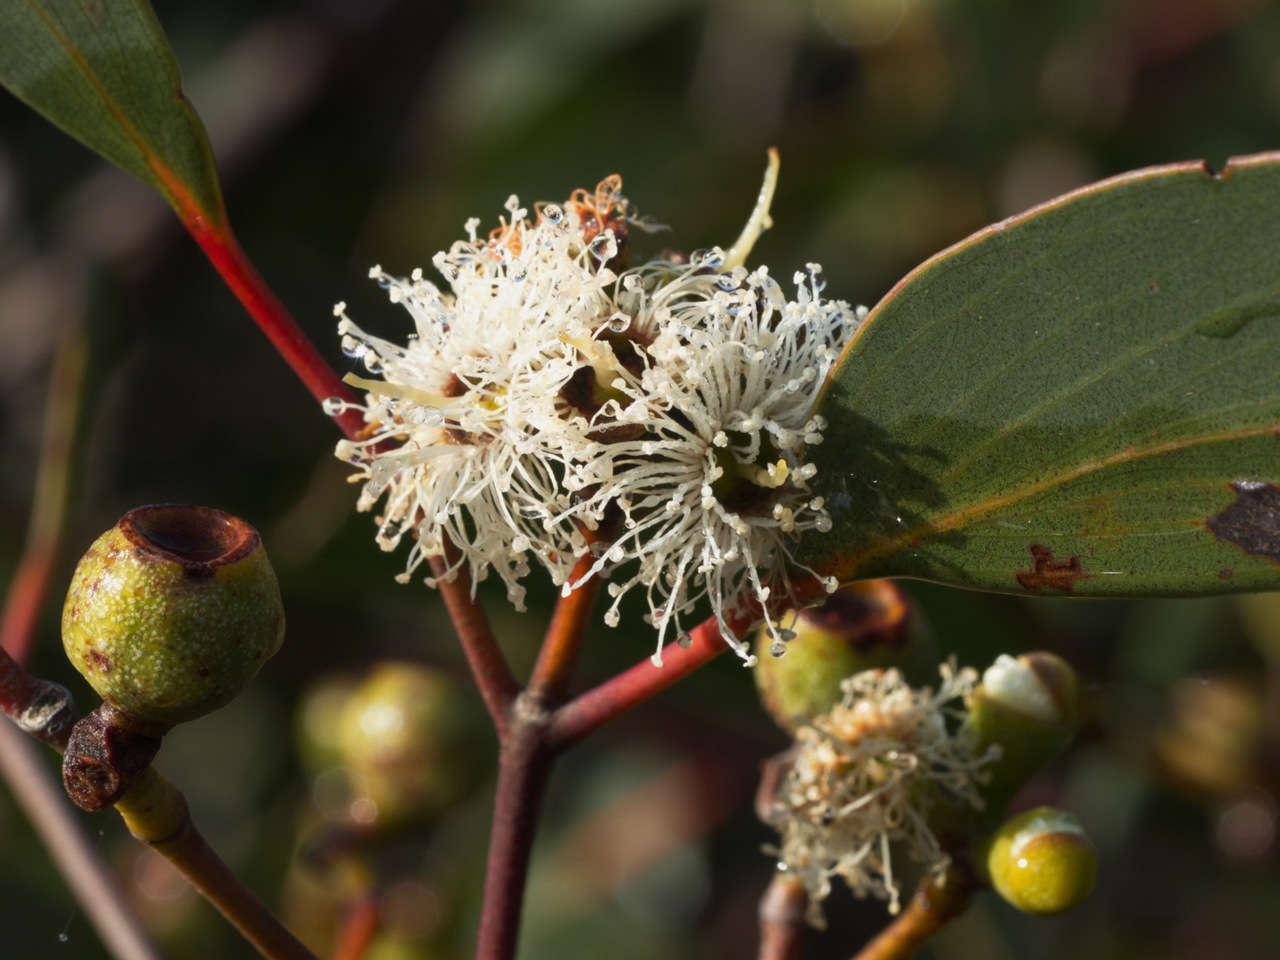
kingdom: Plantae
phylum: Tracheophyta
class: Magnoliopsida
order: Myrtales
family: Myrtaceae
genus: Eucalyptus
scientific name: Eucalyptus obliqua
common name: Messmate stringybark
